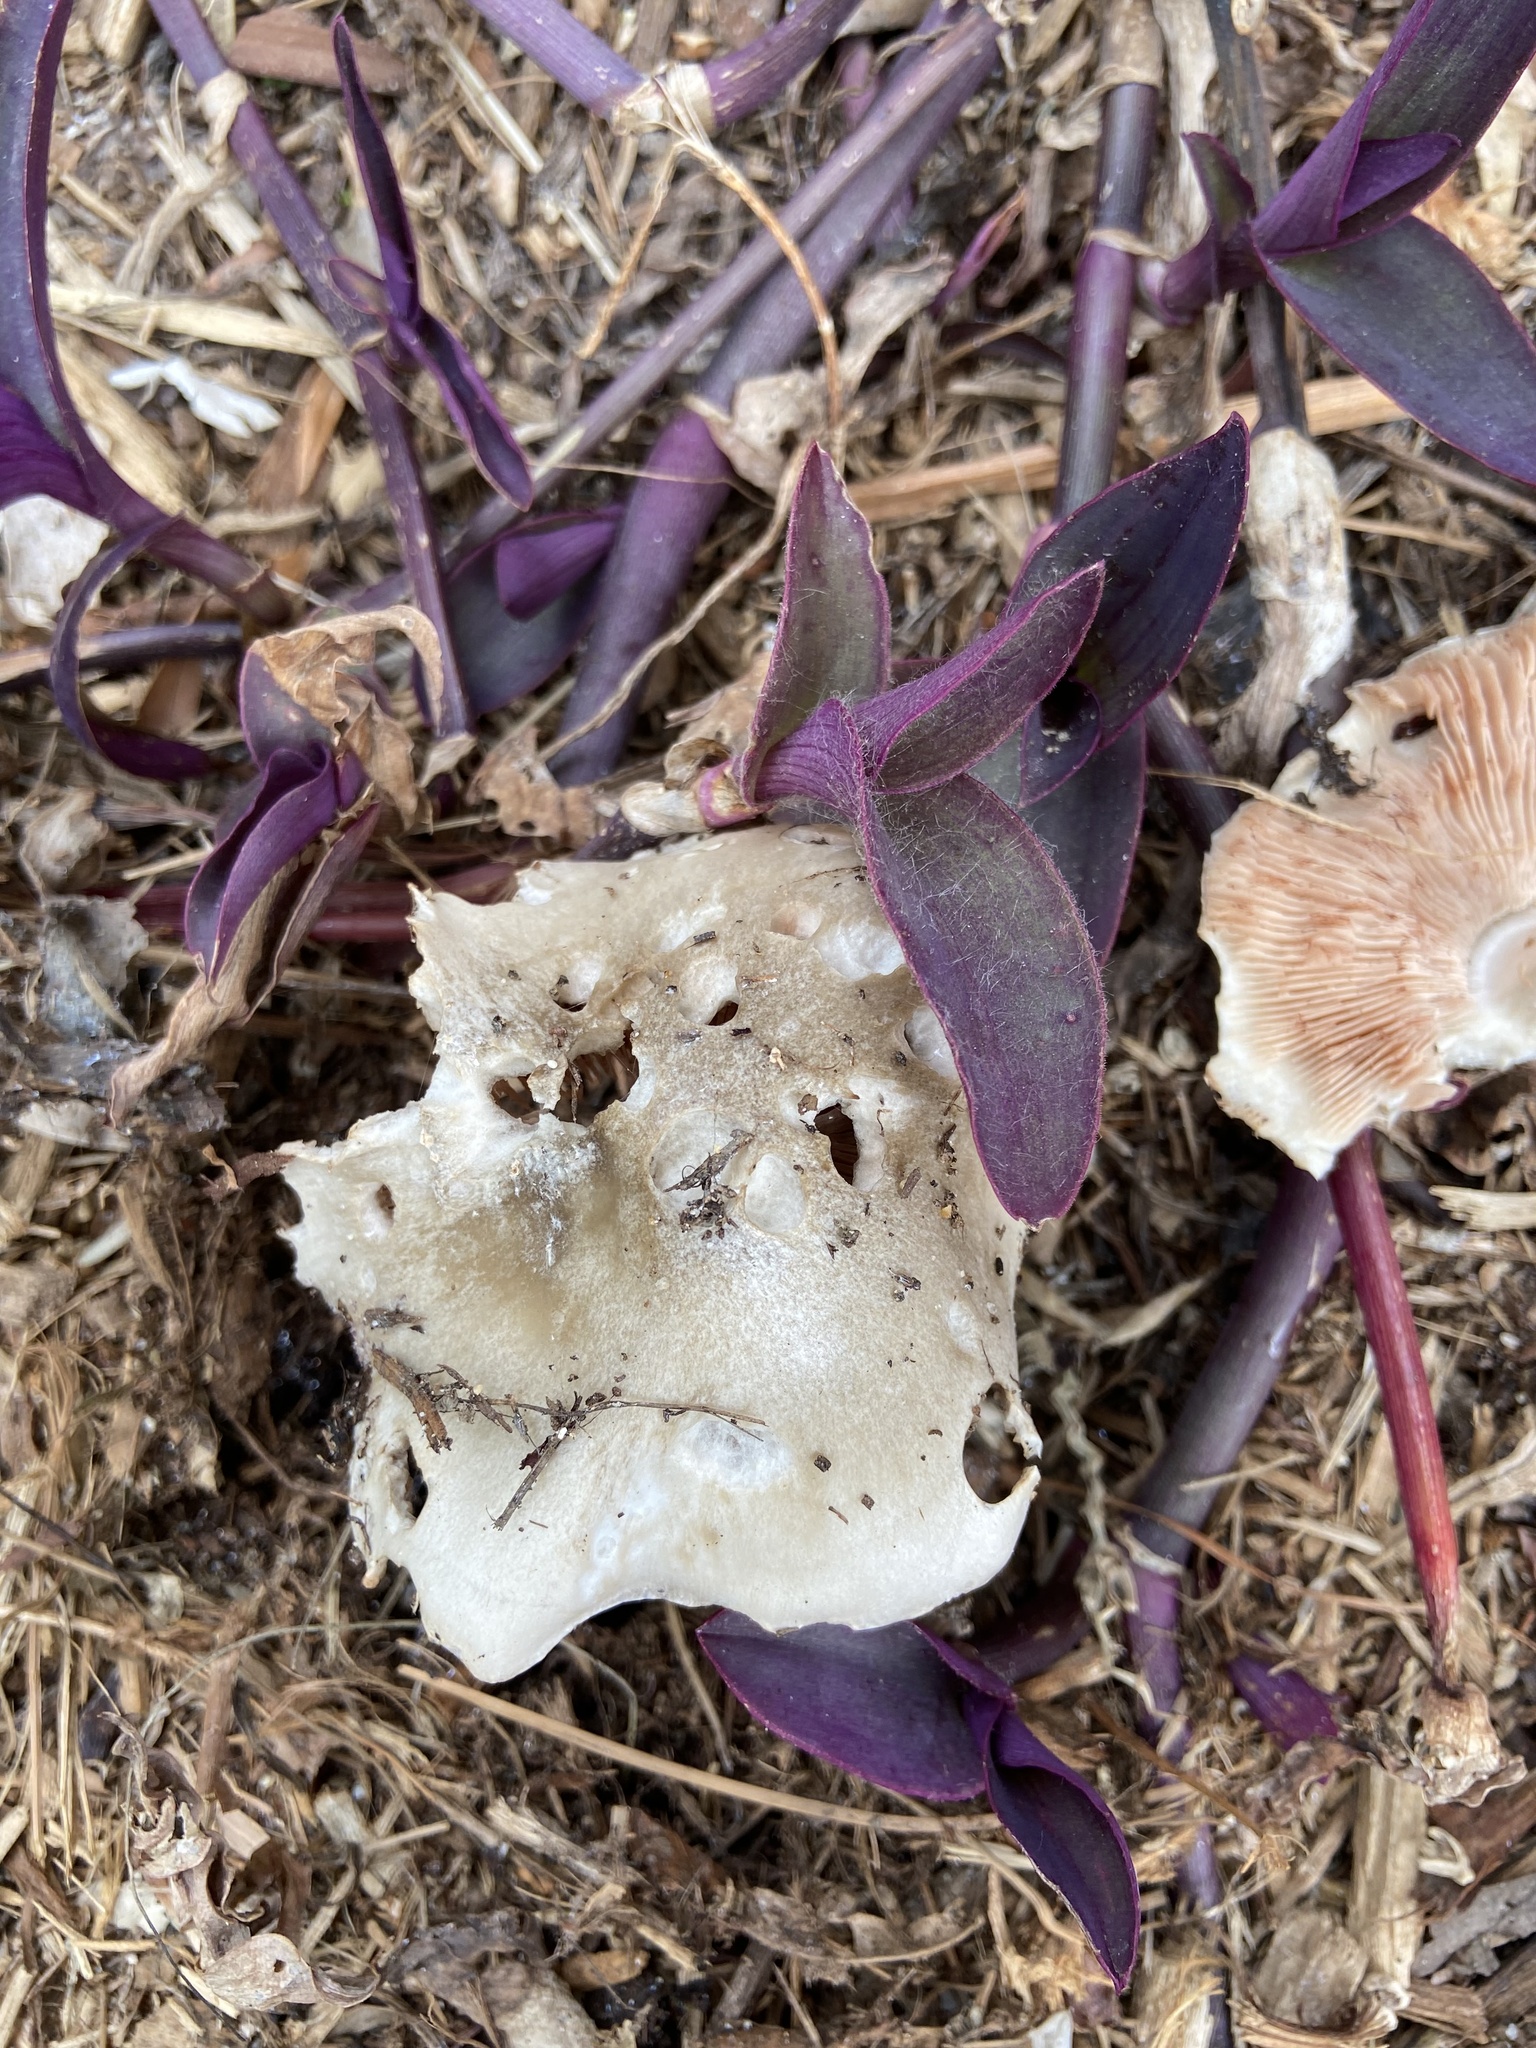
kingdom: Fungi
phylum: Basidiomycota
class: Agaricomycetes
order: Agaricales
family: Pluteaceae
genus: Volvopluteus
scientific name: Volvopluteus gloiocephalus
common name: Stubble rosegill
